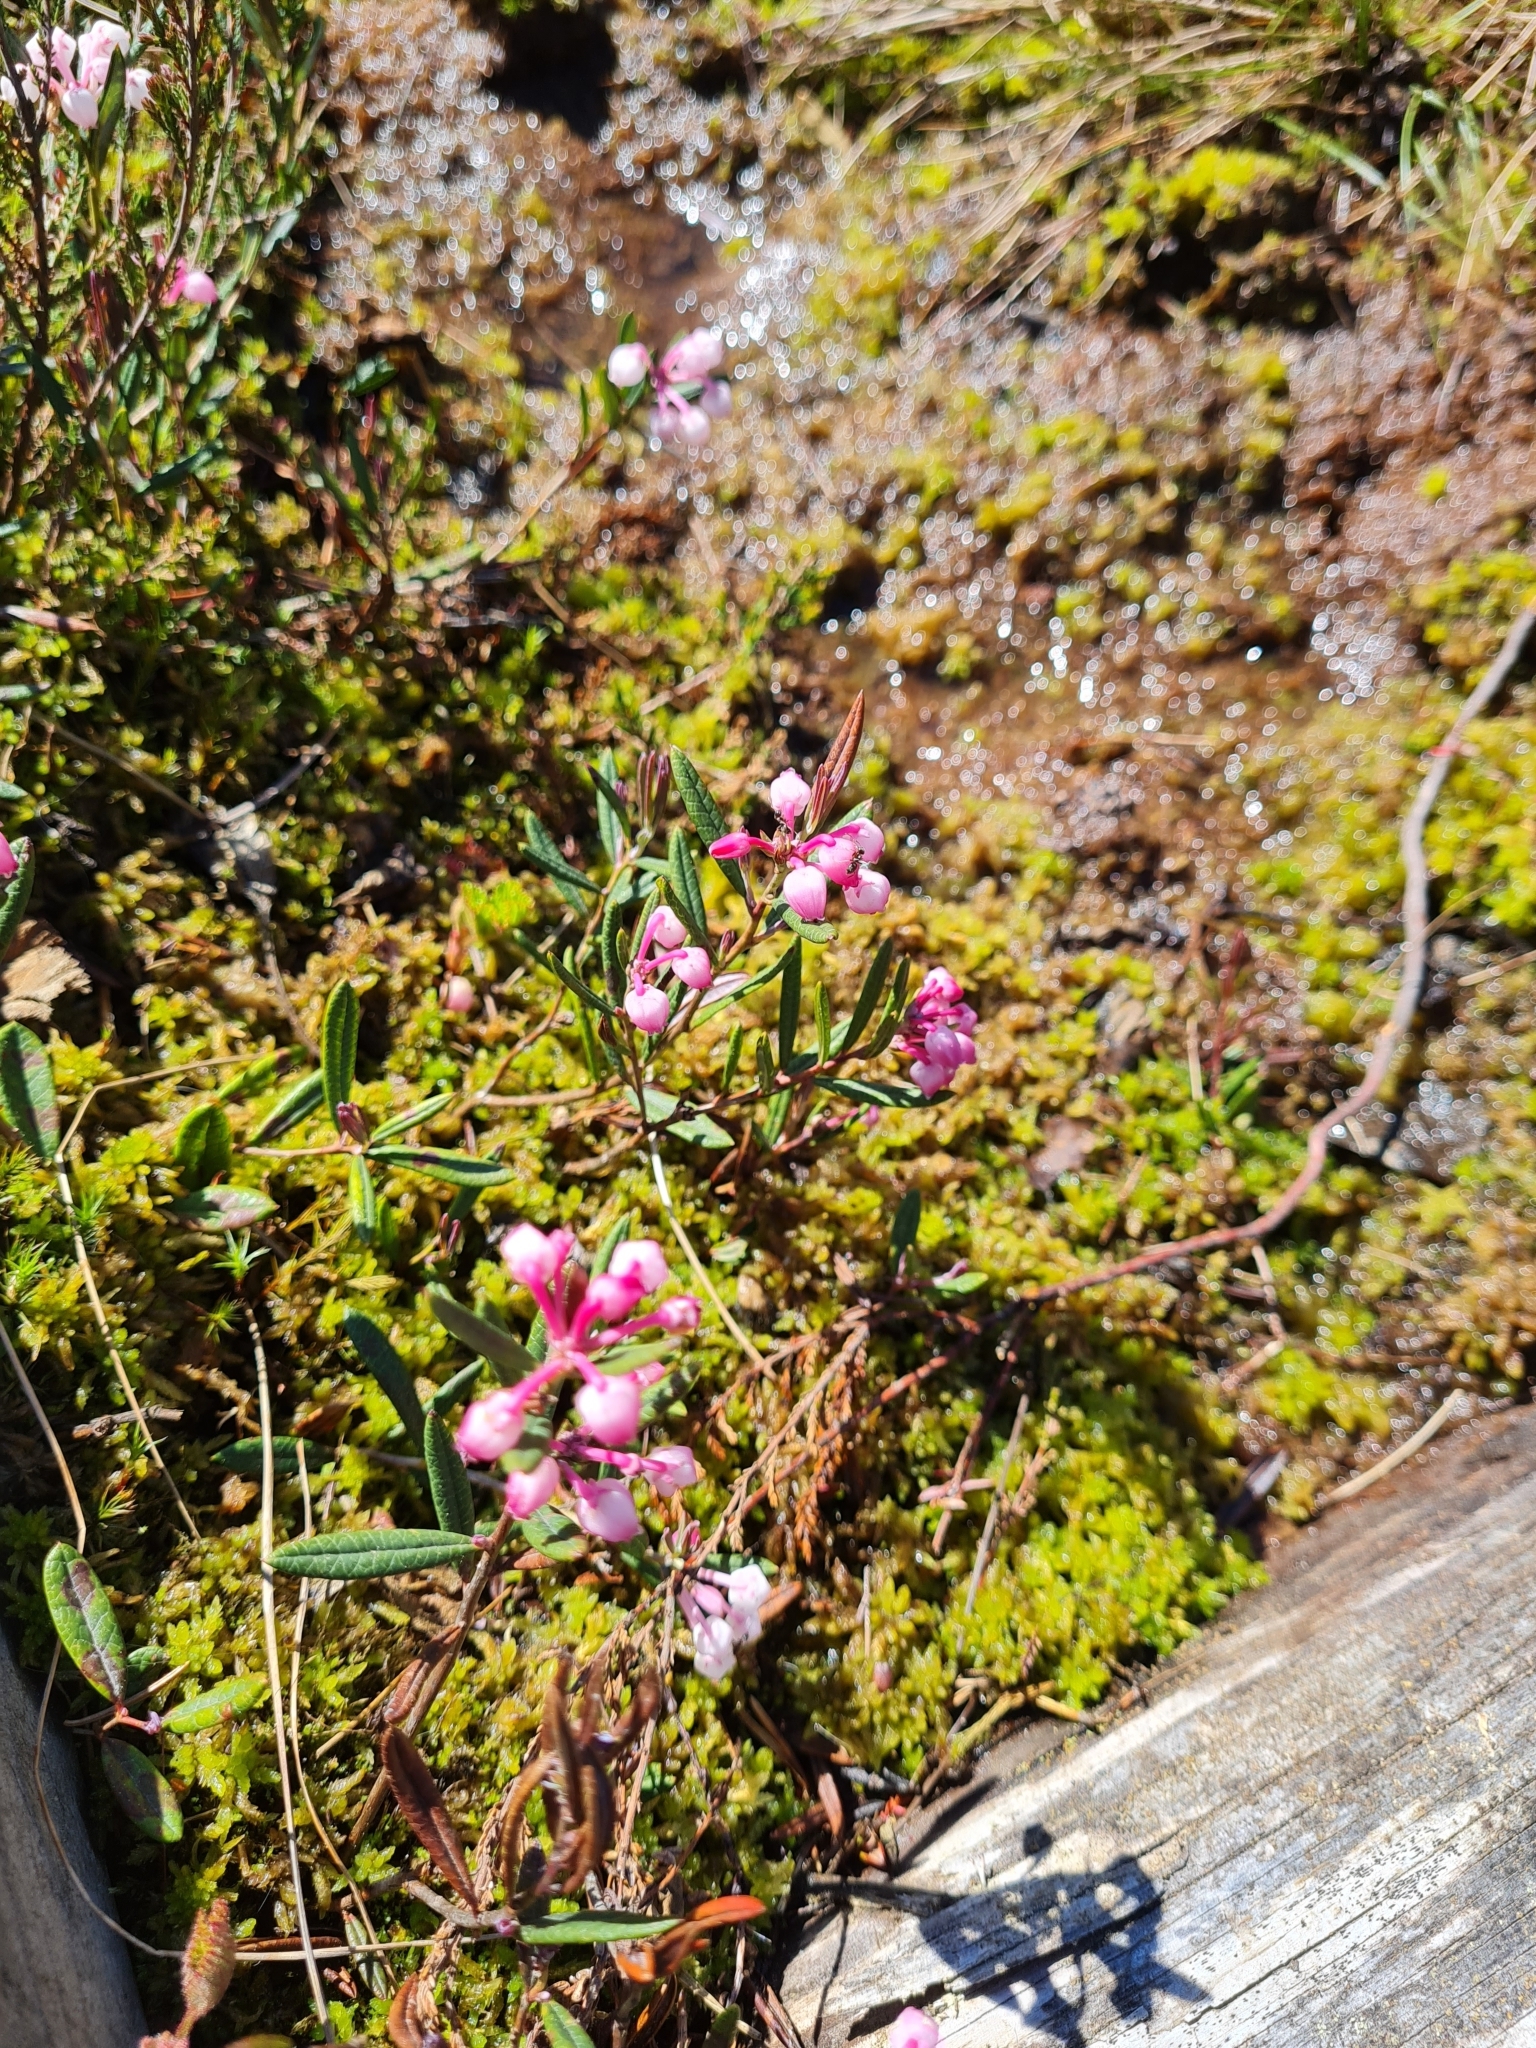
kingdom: Plantae
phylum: Tracheophyta
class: Magnoliopsida
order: Ericales
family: Ericaceae
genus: Andromeda
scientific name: Andromeda polifolia
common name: Bog-rosemary
